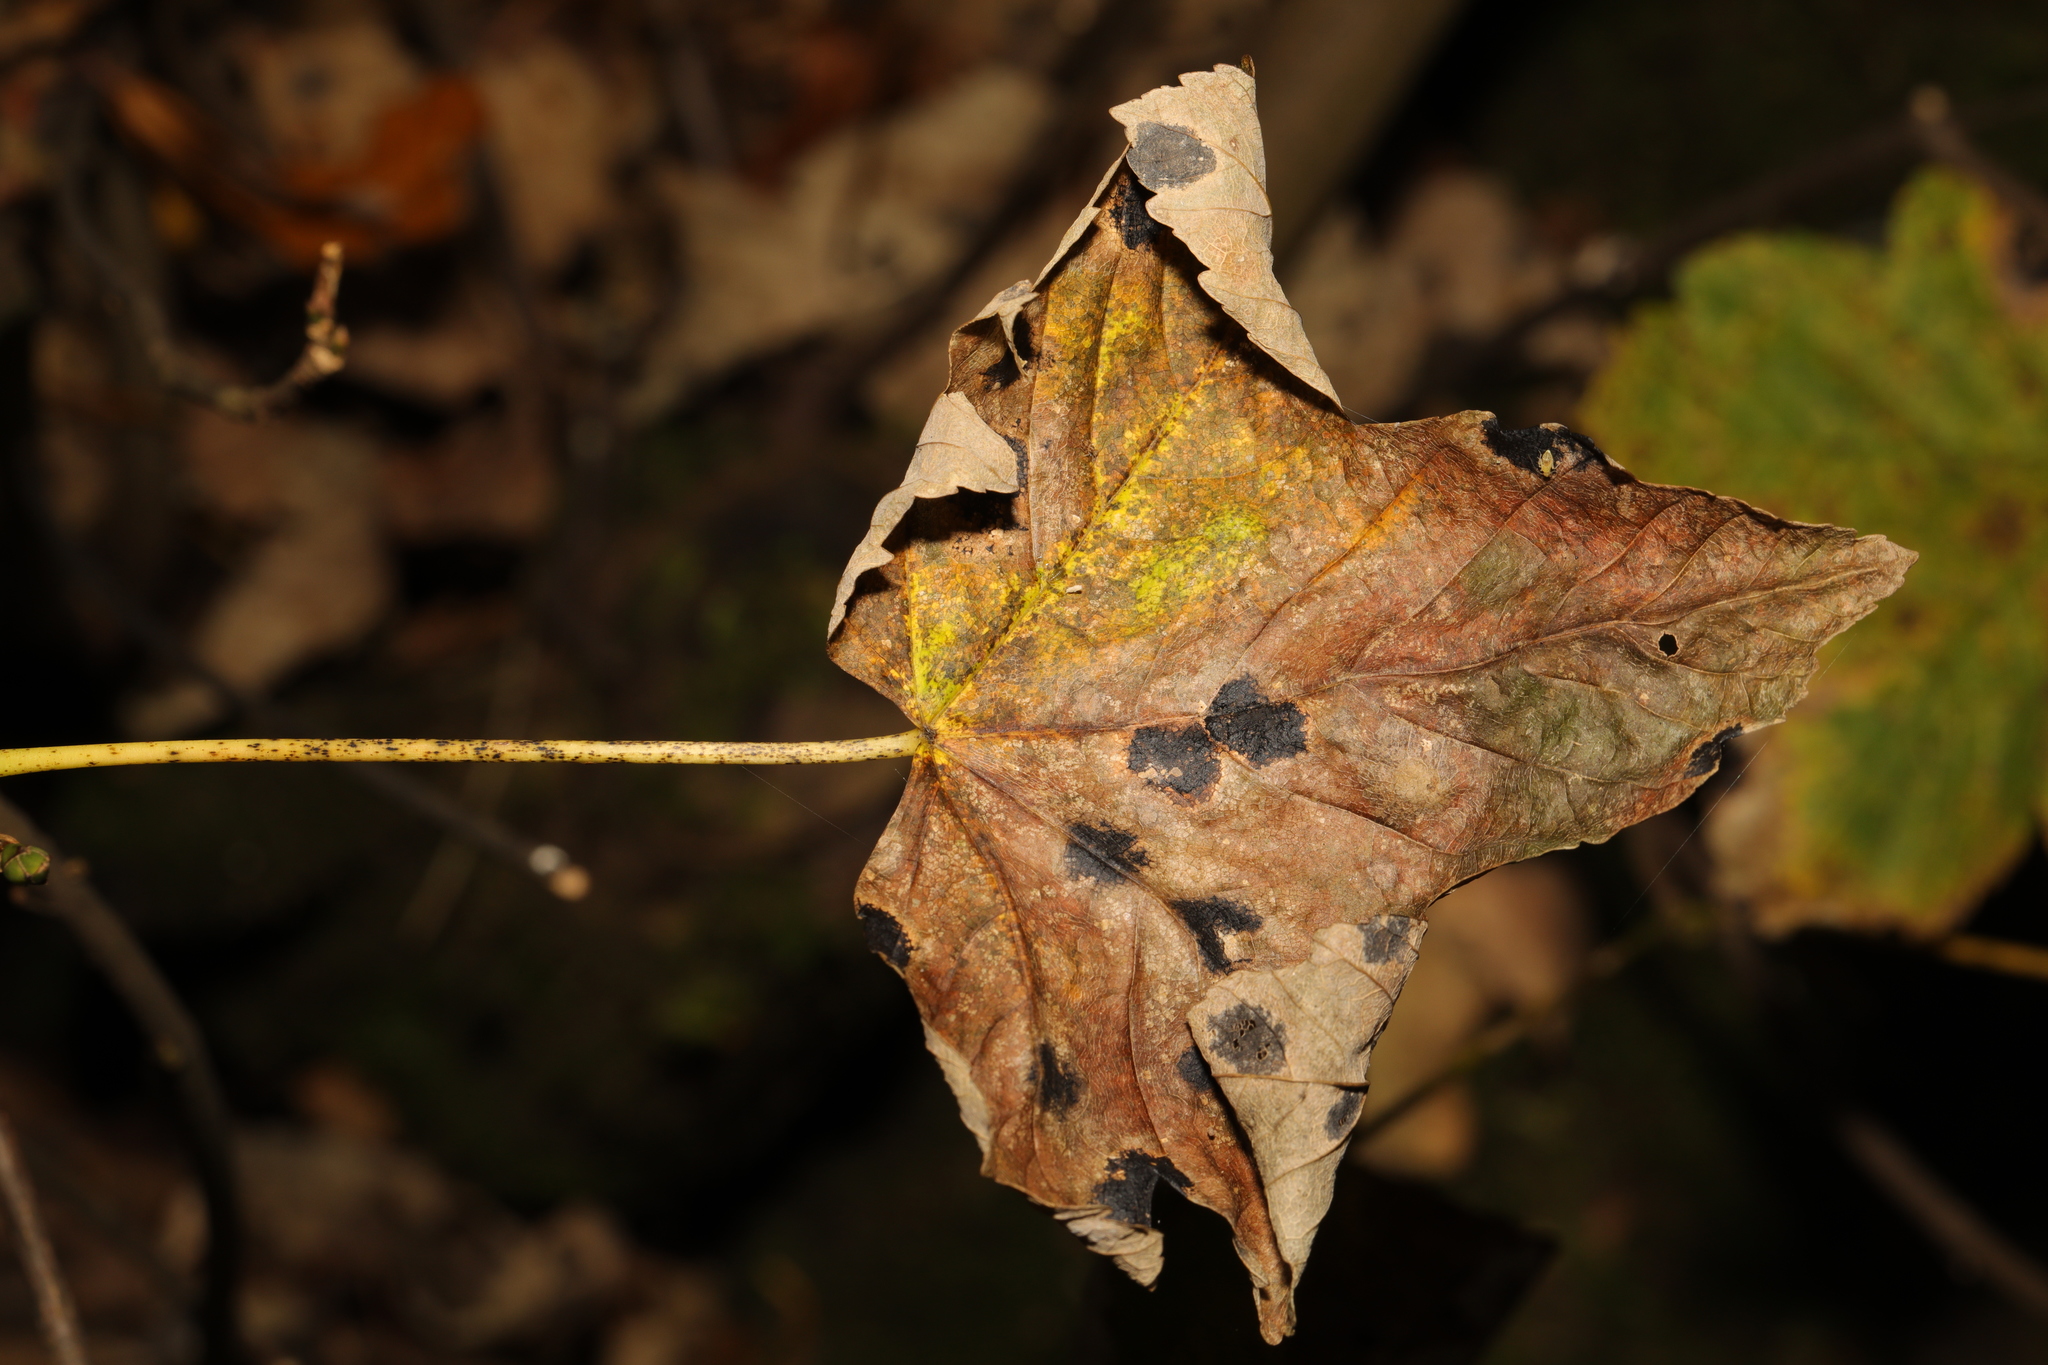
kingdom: Plantae
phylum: Tracheophyta
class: Magnoliopsida
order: Sapindales
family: Sapindaceae
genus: Acer
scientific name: Acer pseudoplatanus
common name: Sycamore
